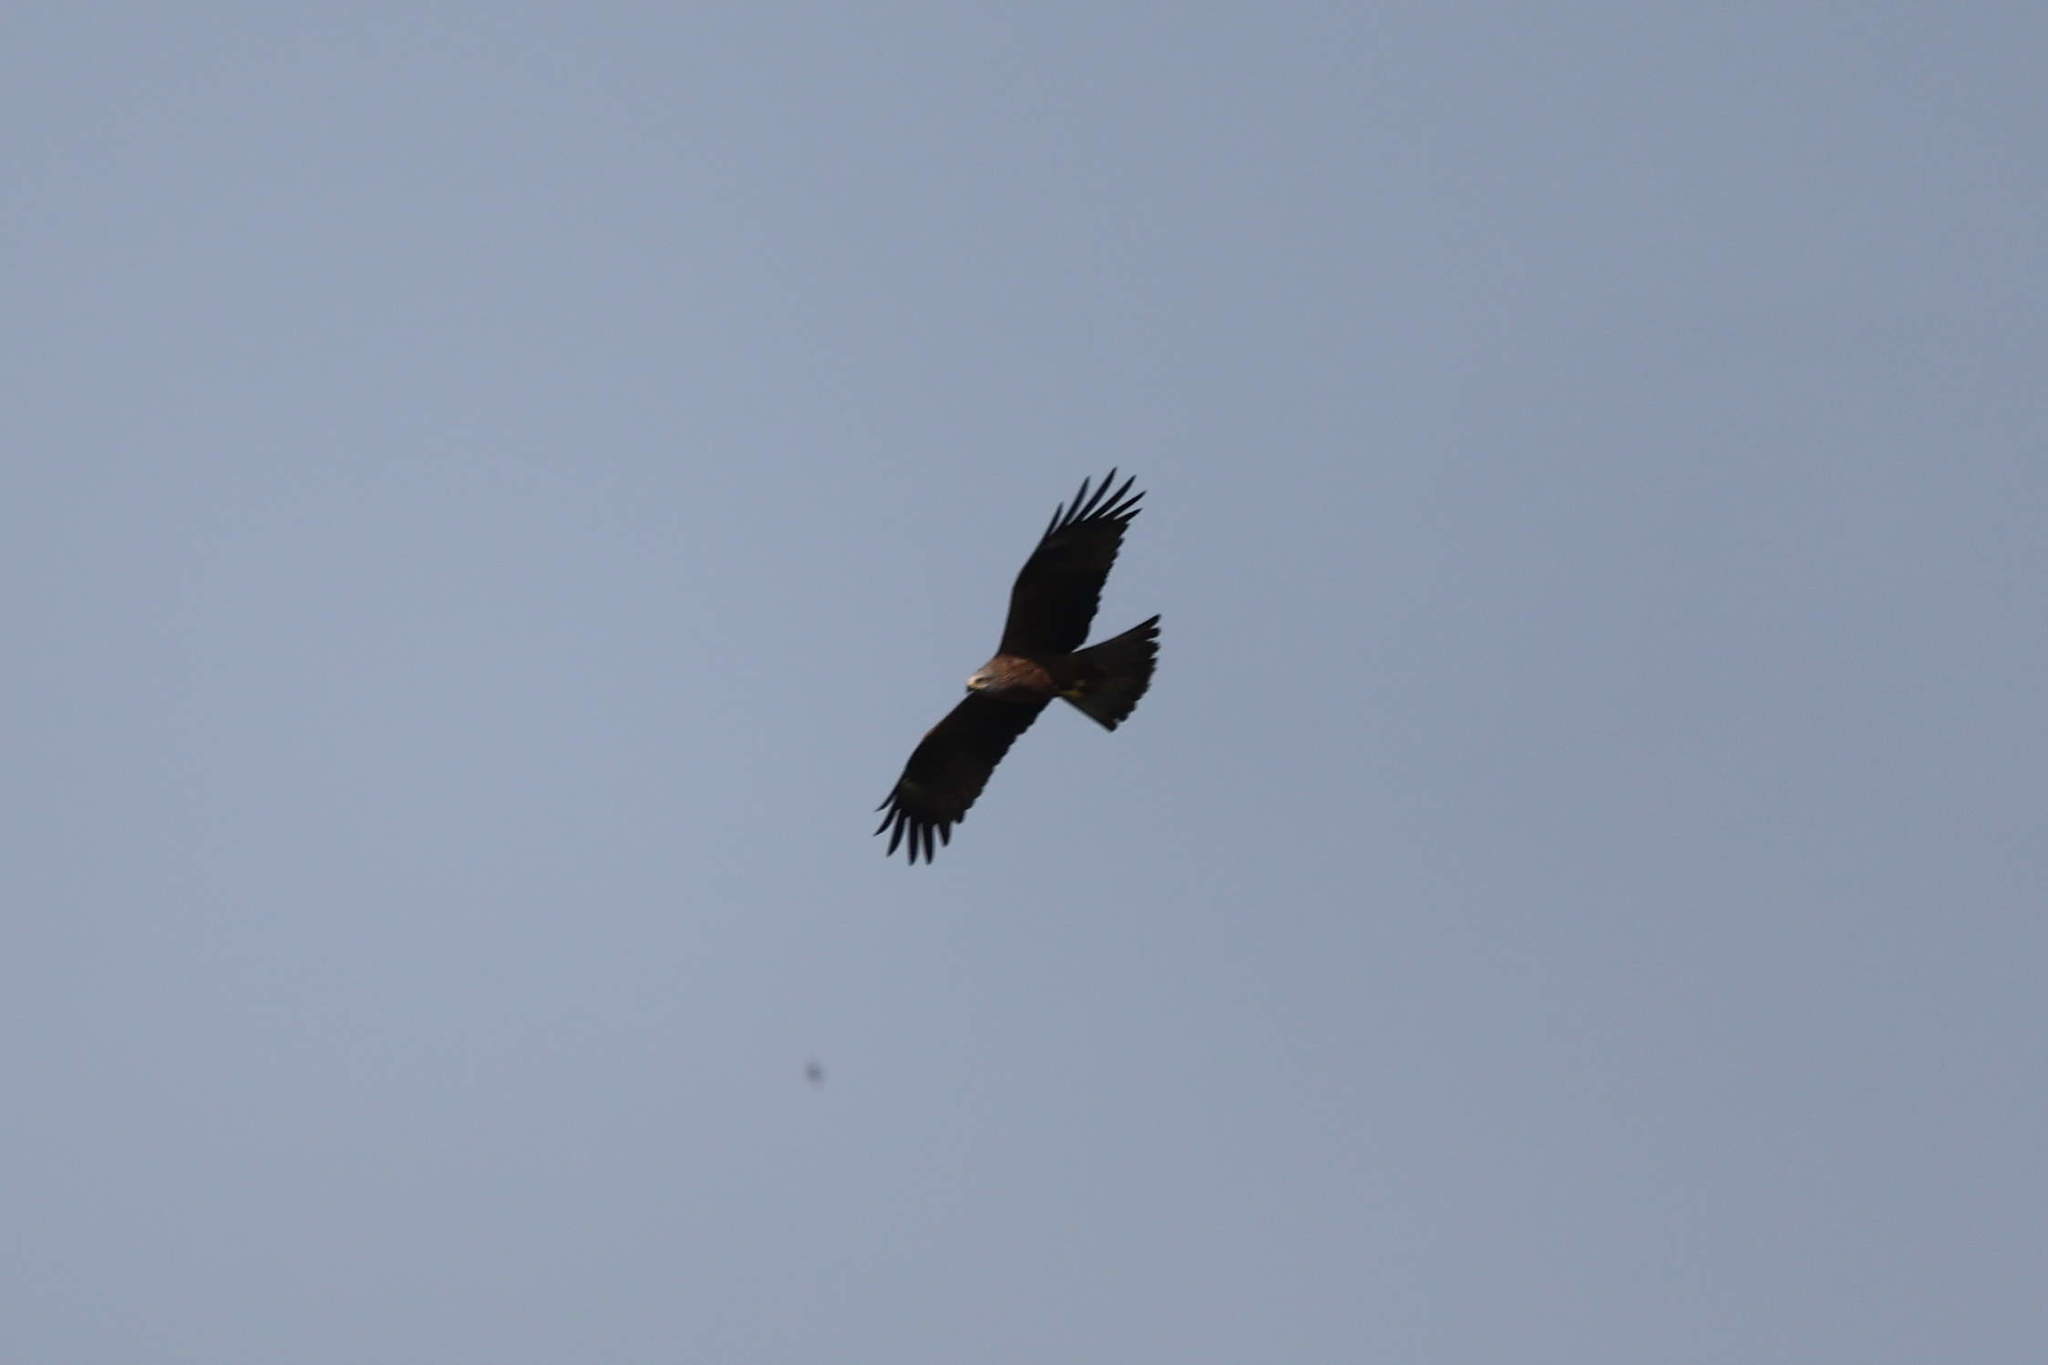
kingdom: Animalia
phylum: Chordata
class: Aves
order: Accipitriformes
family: Accipitridae
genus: Milvus
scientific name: Milvus migrans
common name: Black kite
